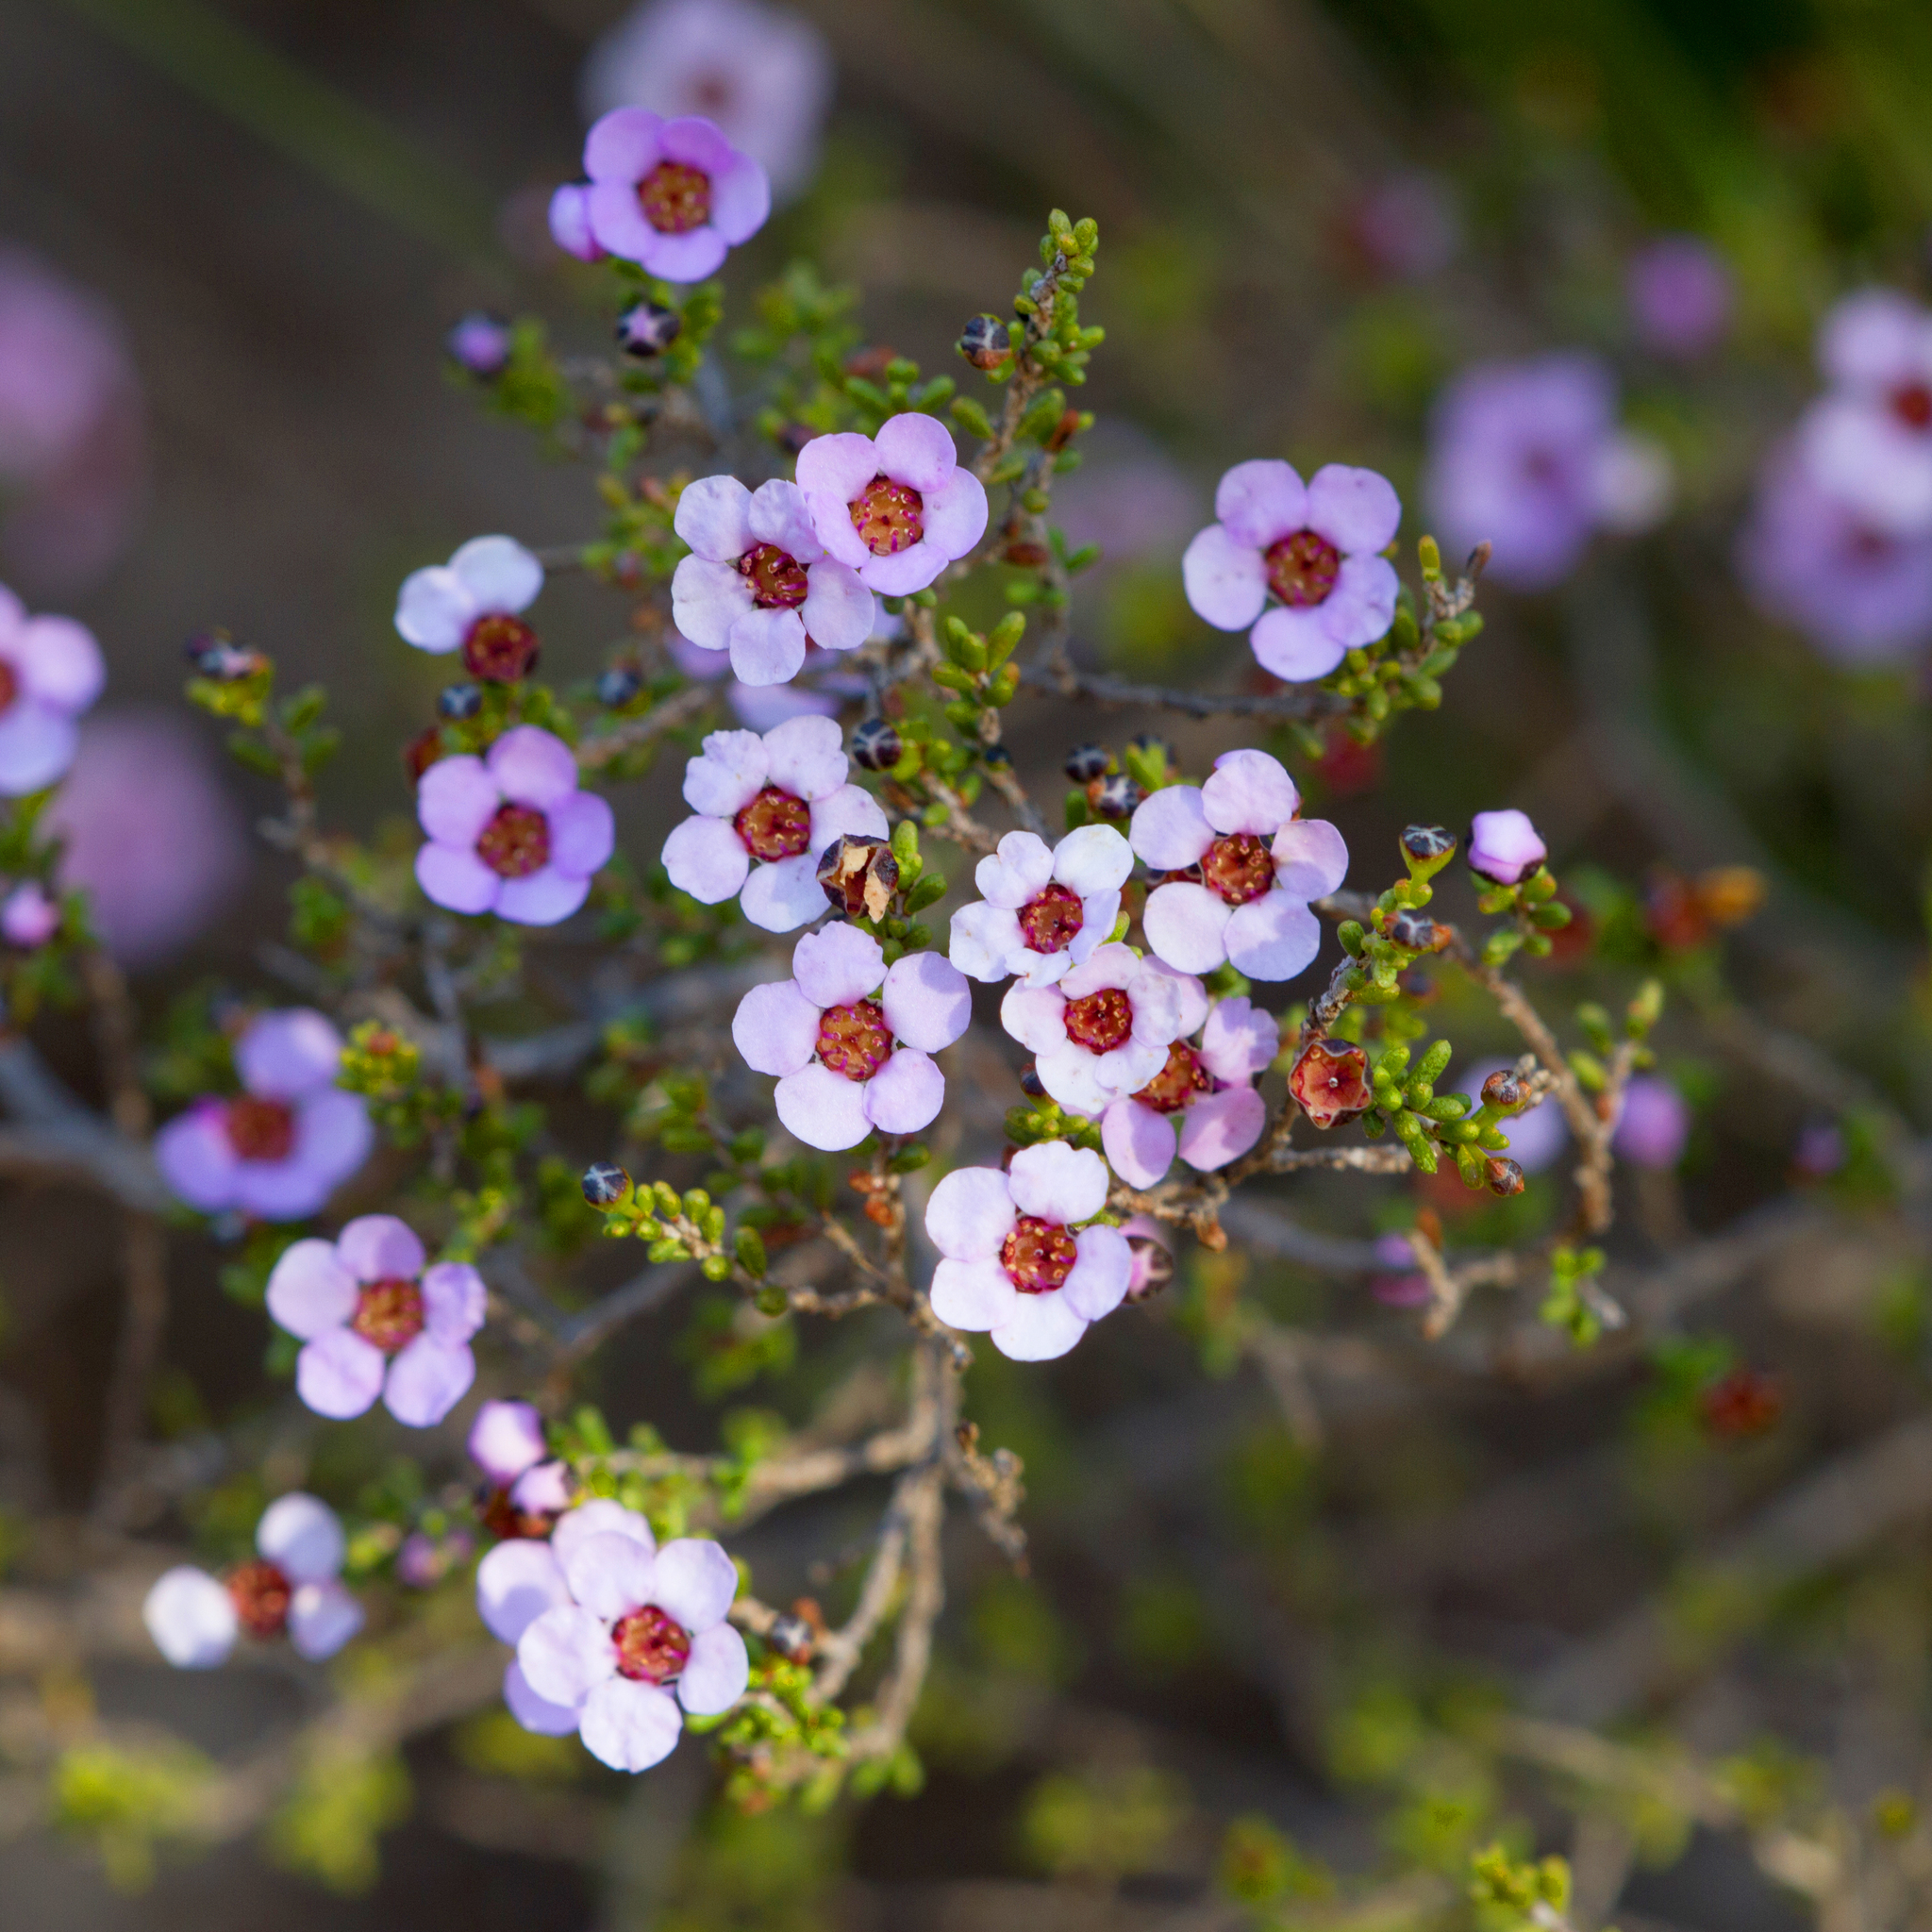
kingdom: Plantae
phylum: Tracheophyta
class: Magnoliopsida
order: Myrtales
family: Myrtaceae
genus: Rinzia
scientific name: Rinzia orientalis
